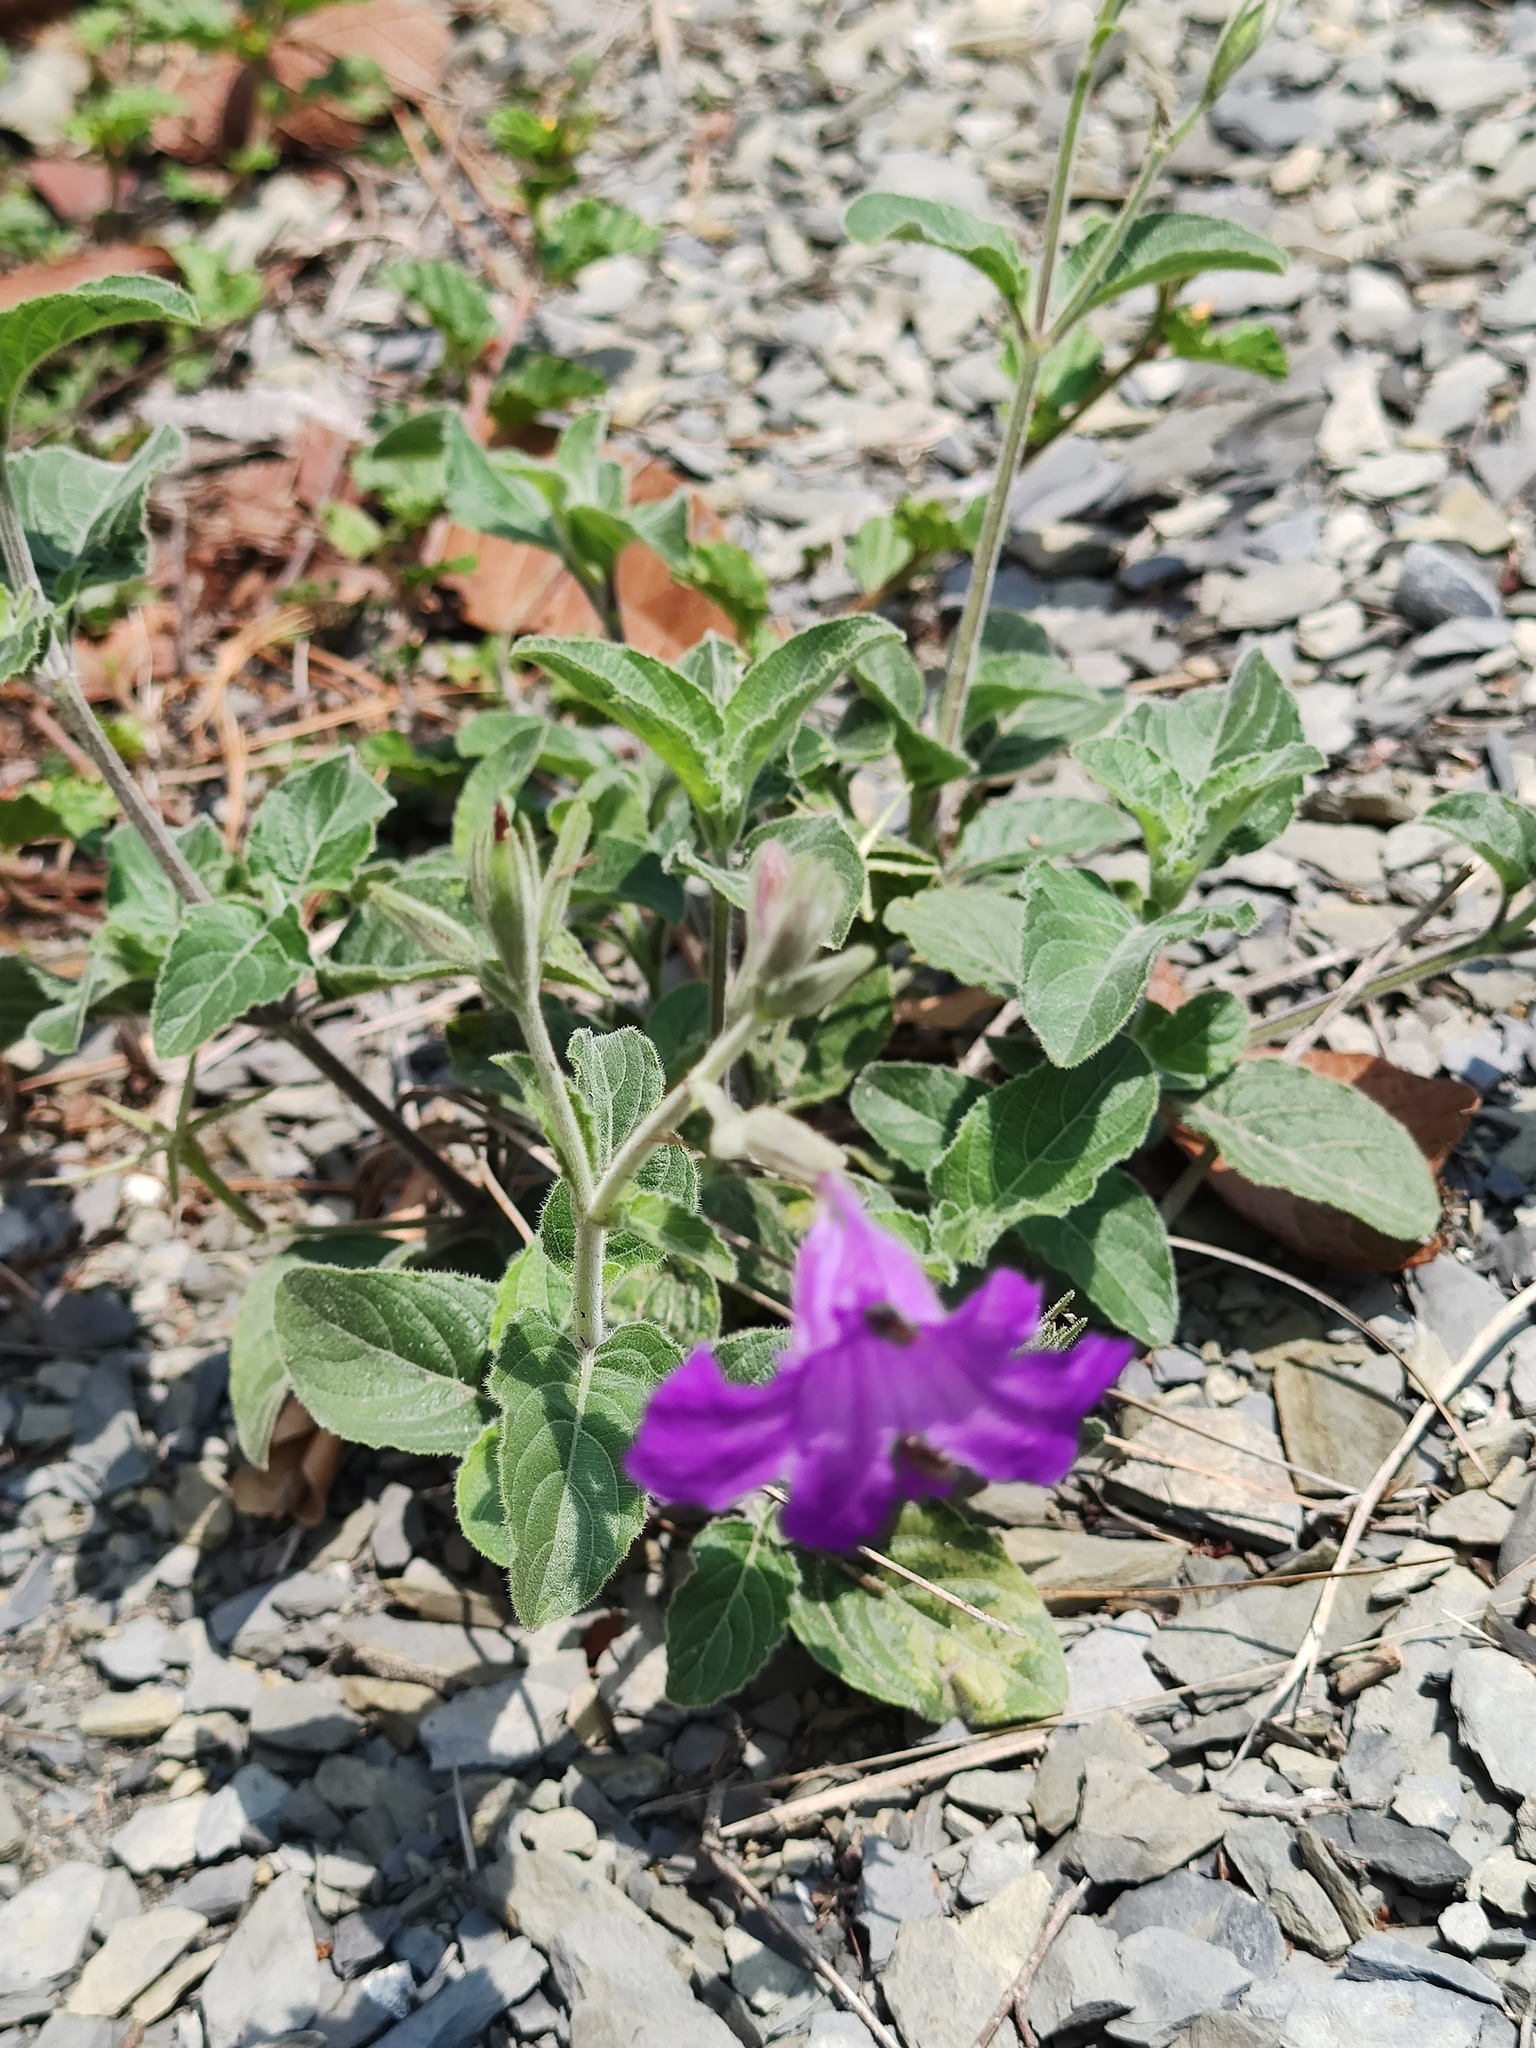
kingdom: Plantae
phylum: Tracheophyta
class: Magnoliopsida
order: Lamiales
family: Acanthaceae
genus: Ruellia
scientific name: Ruellia ciliatiflora
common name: Hairyflower wild petunia
